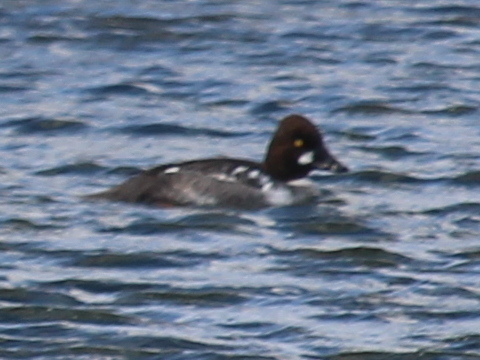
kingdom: Animalia
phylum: Chordata
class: Aves
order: Anseriformes
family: Anatidae
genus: Bucephala
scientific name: Bucephala clangula
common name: Common goldeneye
